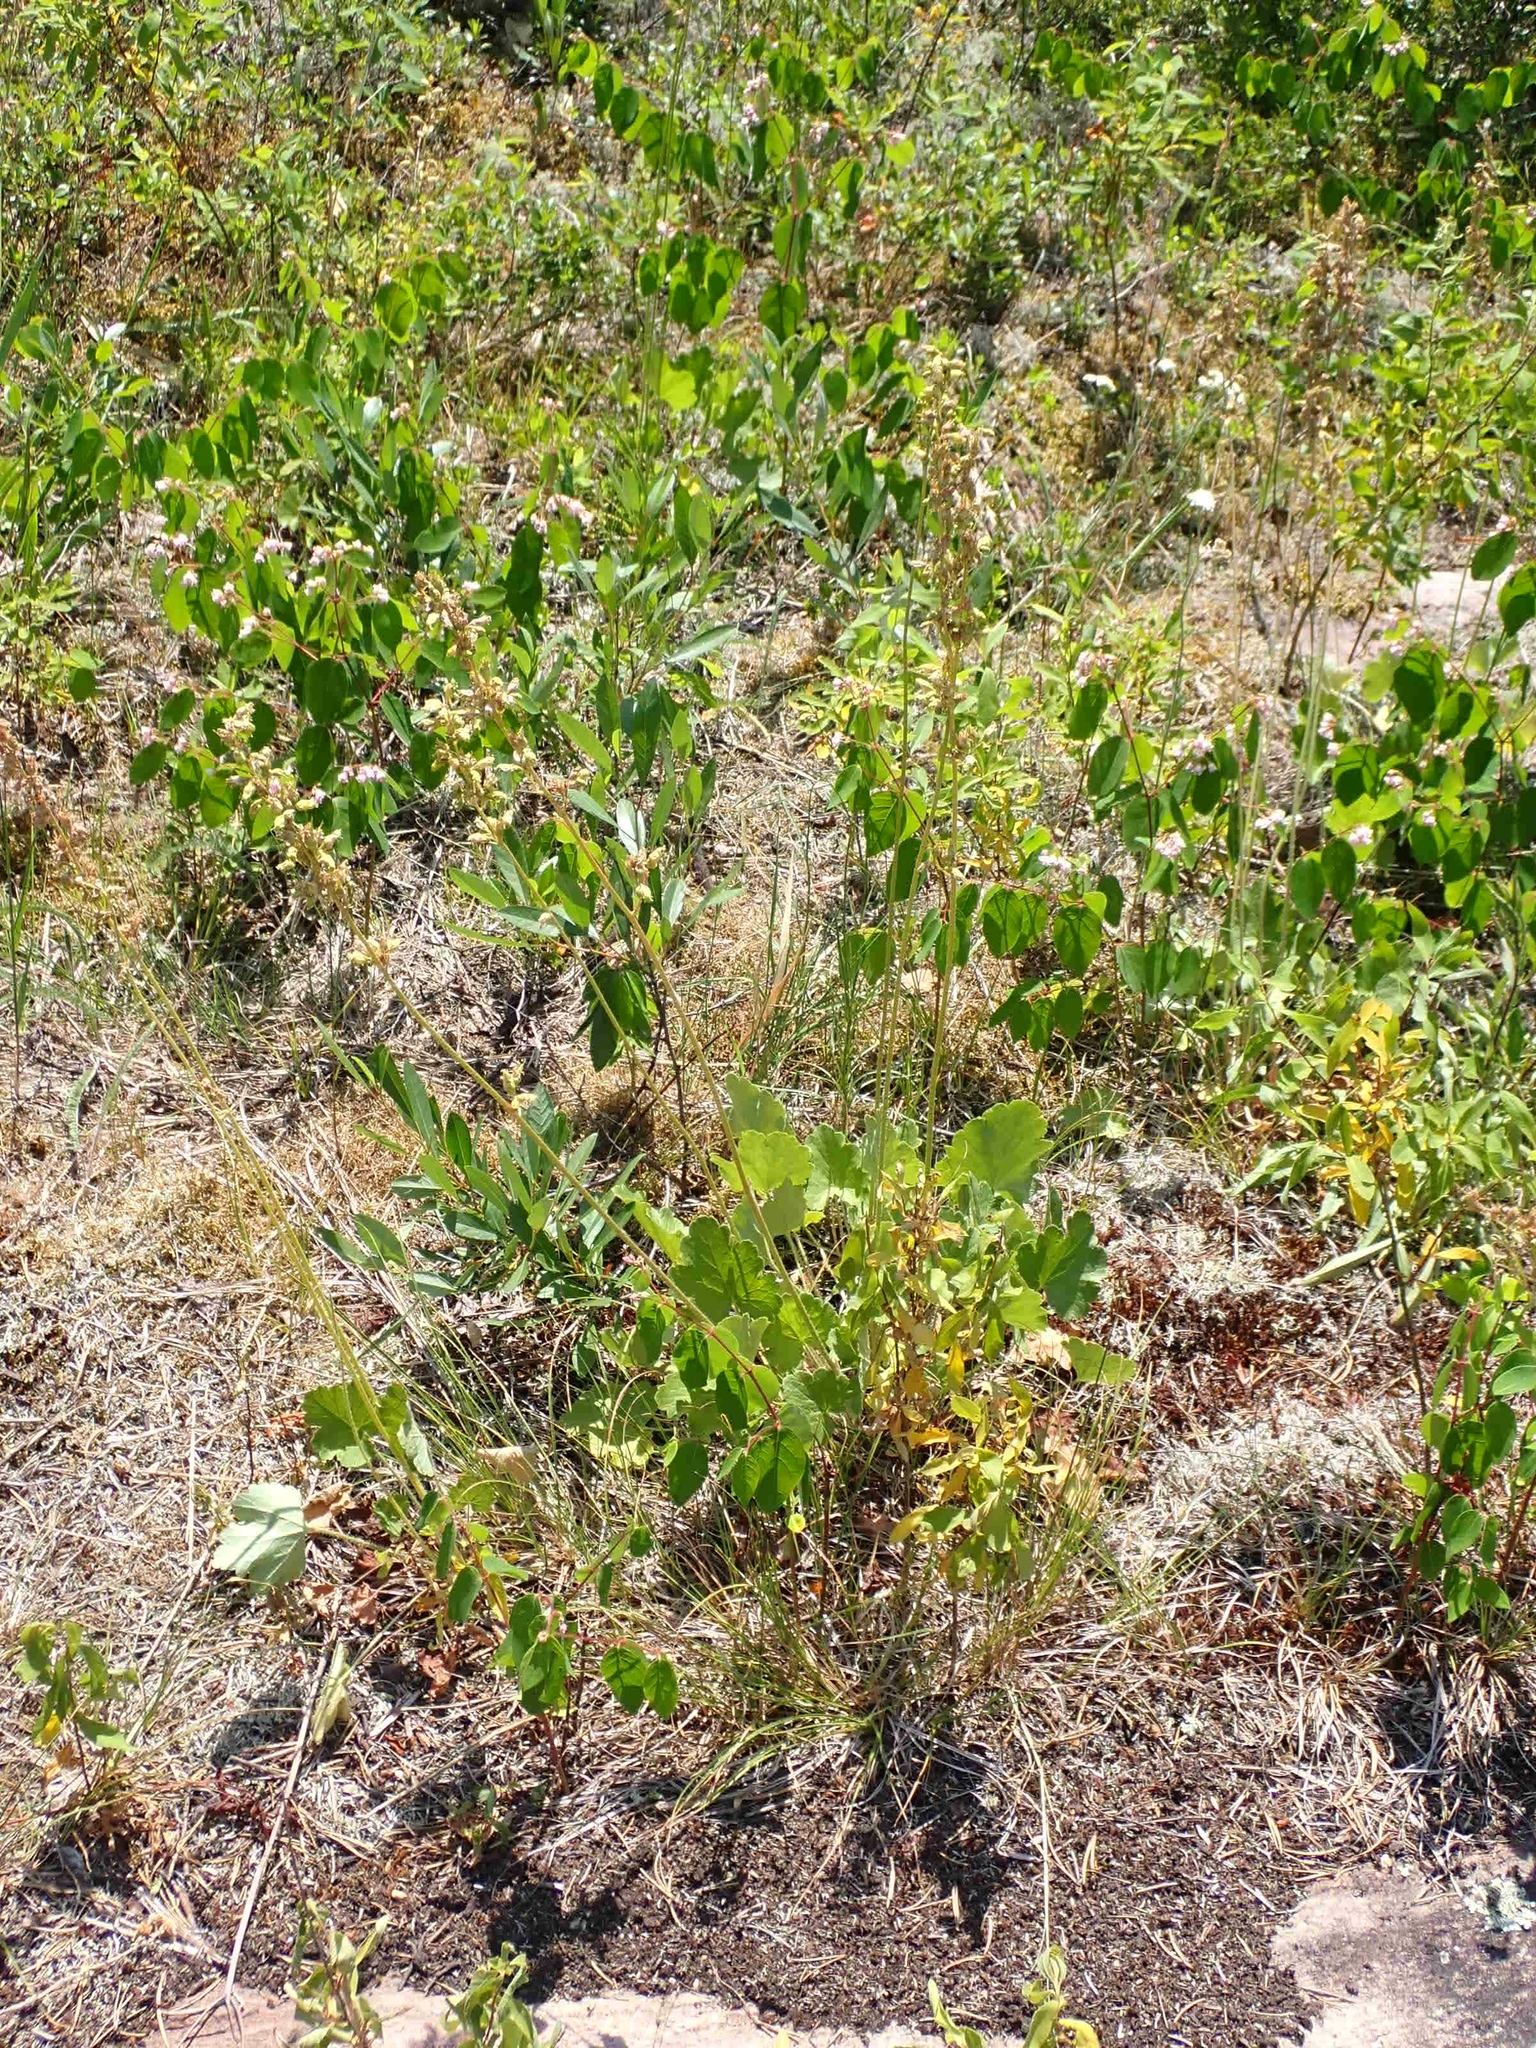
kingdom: Plantae
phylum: Tracheophyta
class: Magnoliopsida
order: Saxifragales
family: Saxifragaceae
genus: Heuchera
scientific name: Heuchera richardsonii
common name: Richardson's alumroot
